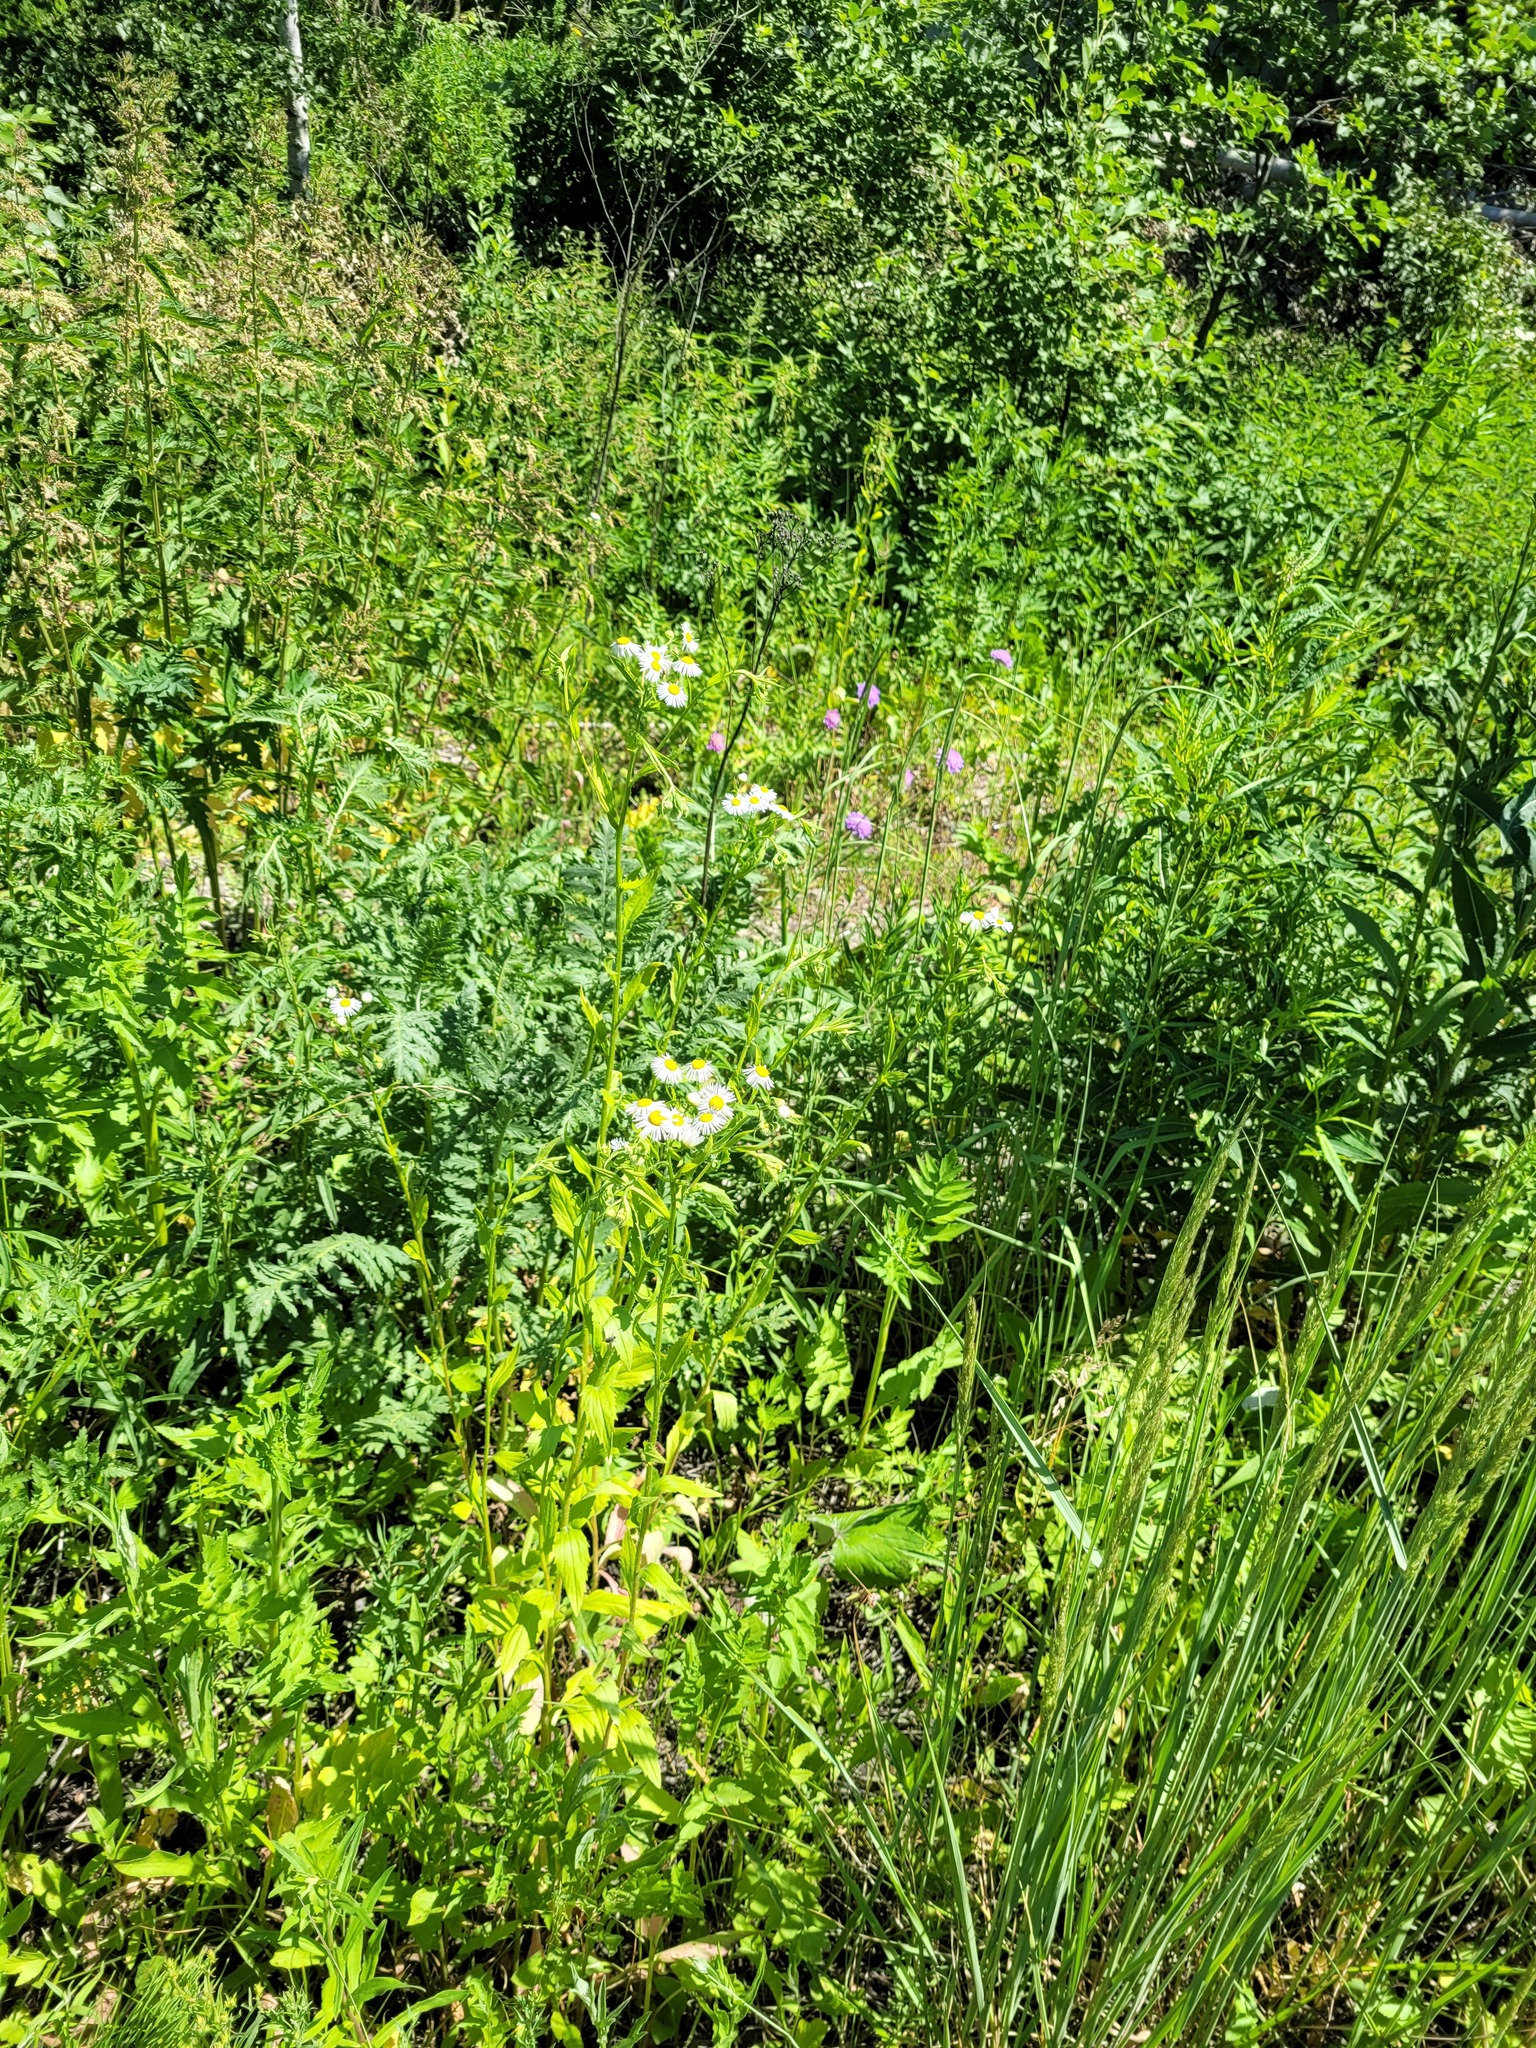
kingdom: Plantae
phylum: Tracheophyta
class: Magnoliopsida
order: Asterales
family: Asteraceae
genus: Erigeron
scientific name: Erigeron annuus
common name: Tall fleabane
